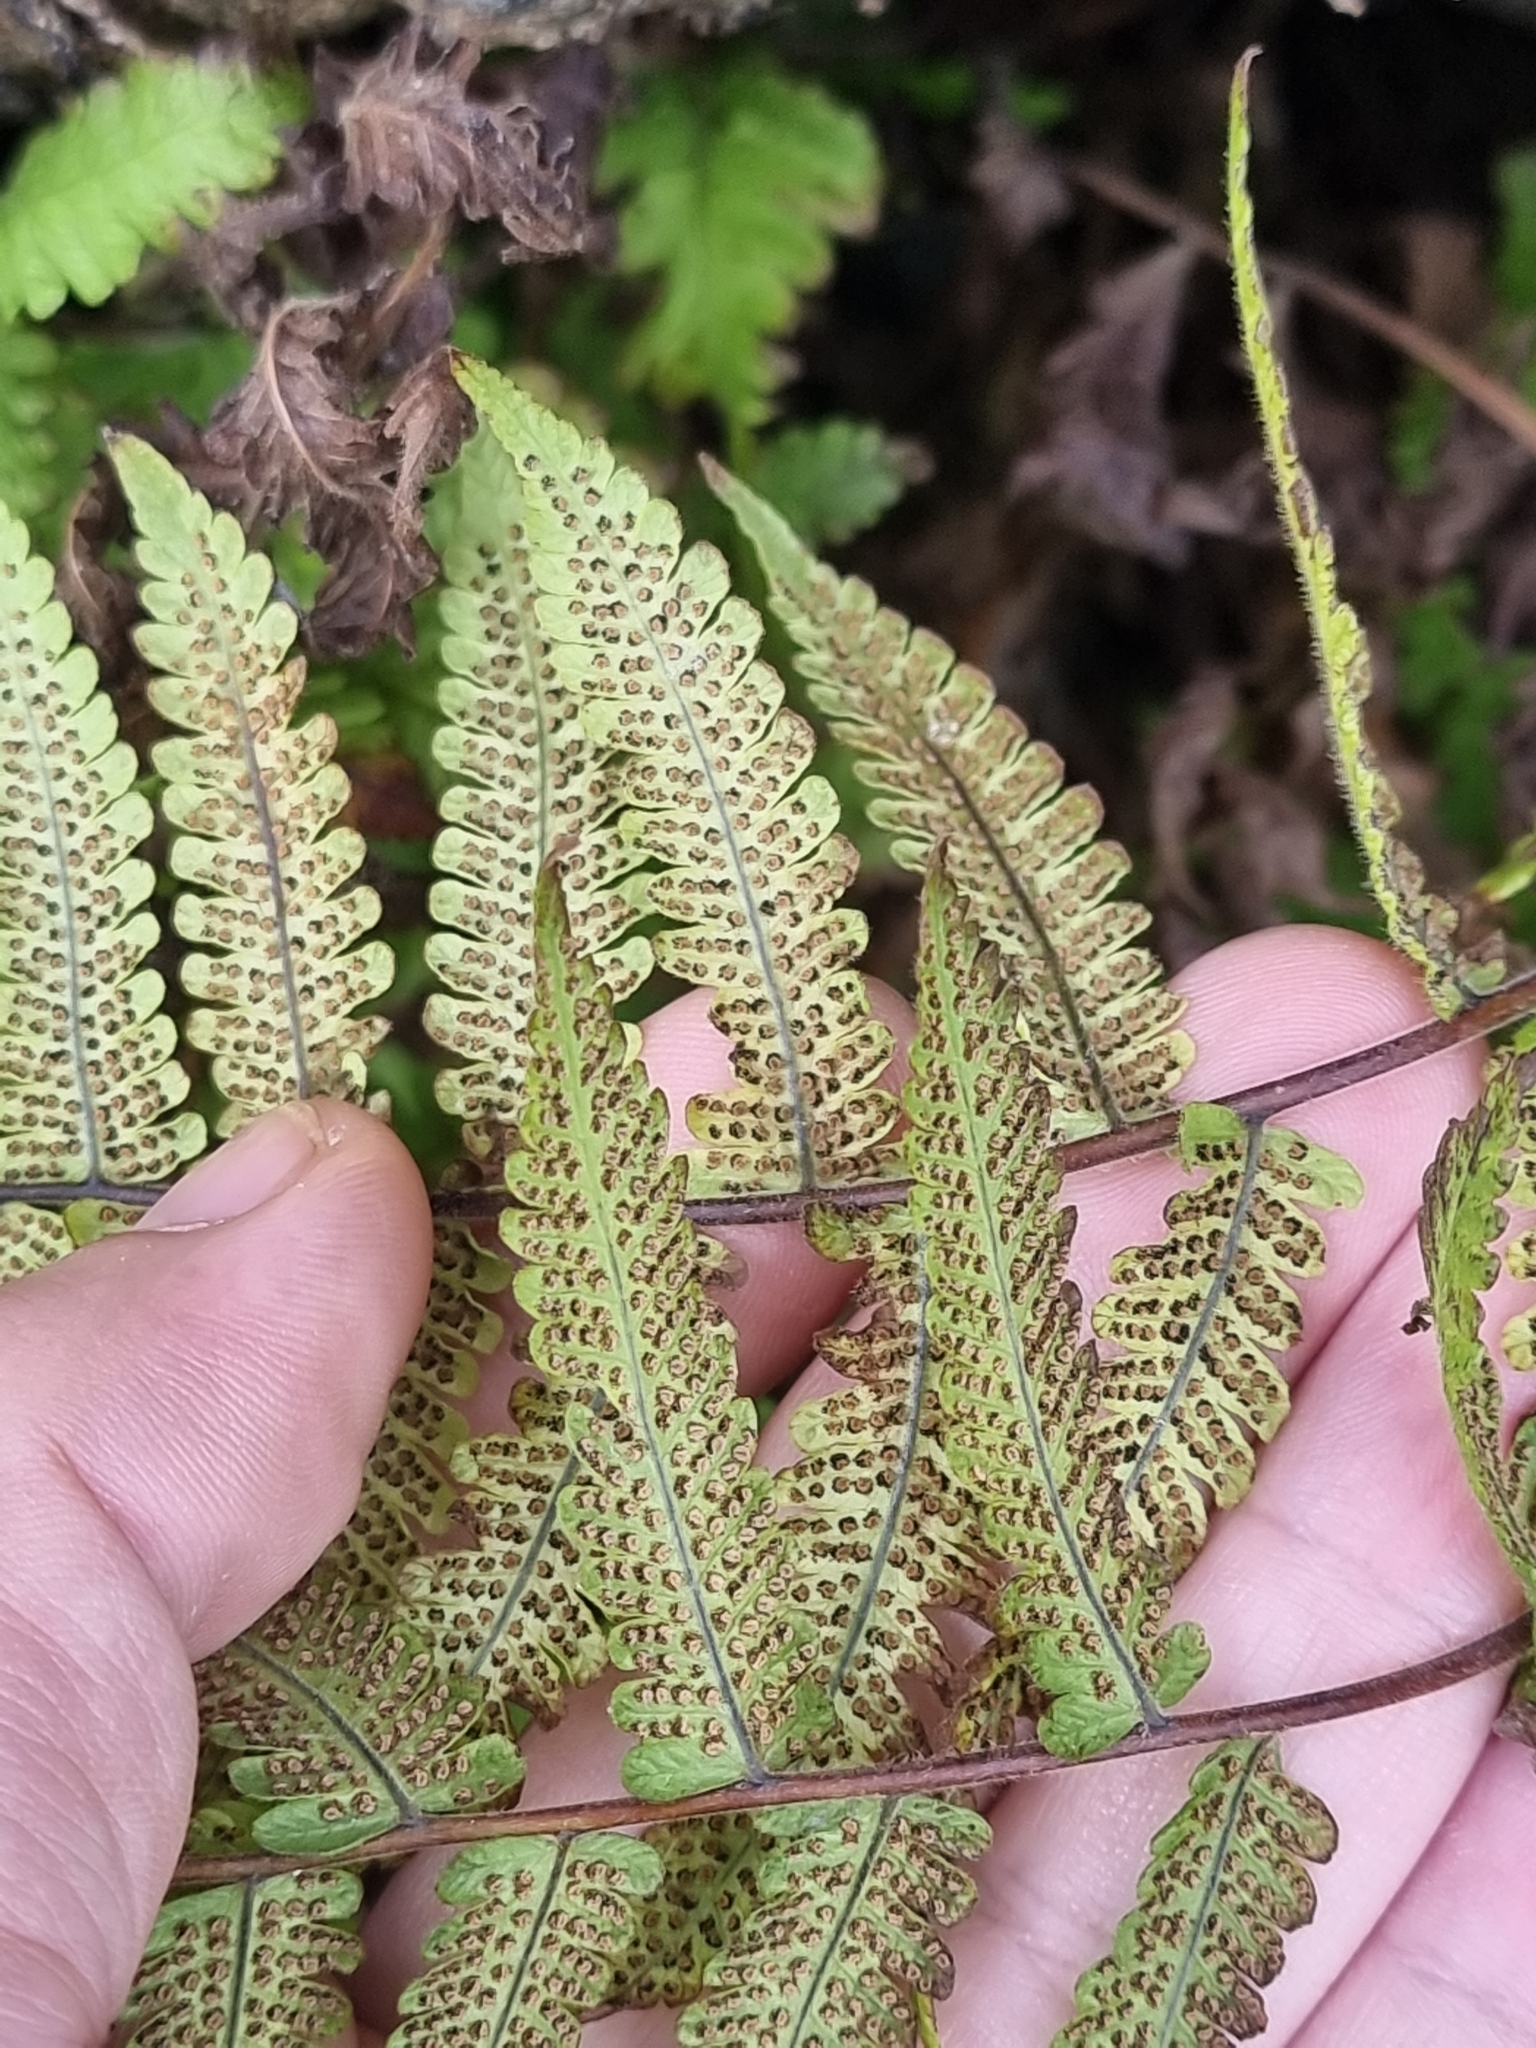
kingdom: Plantae
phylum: Tracheophyta
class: Polypodiopsida
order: Polypodiales
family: Thelypteridaceae
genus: Christella
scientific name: Christella dentata
